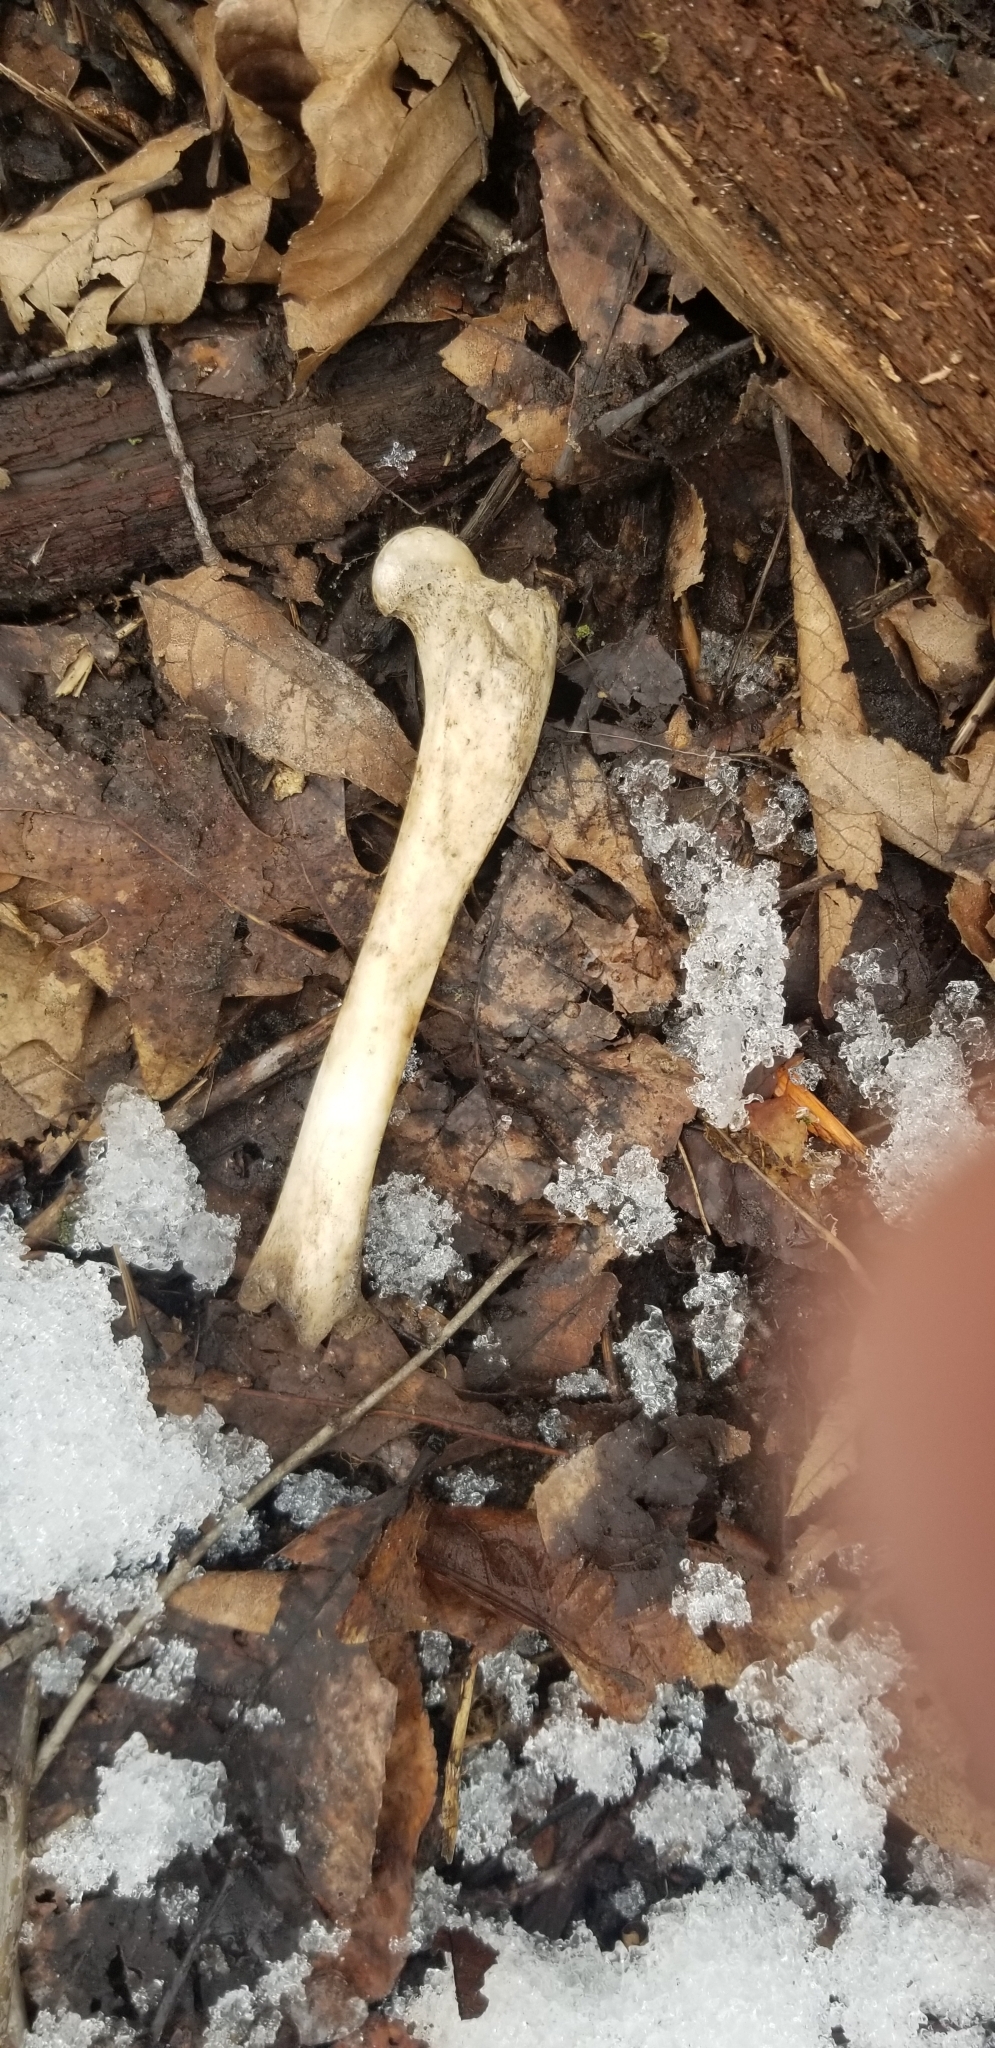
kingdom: Animalia
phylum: Chordata
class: Mammalia
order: Carnivora
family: Procyonidae
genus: Procyon
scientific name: Procyon lotor
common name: Raccoon
